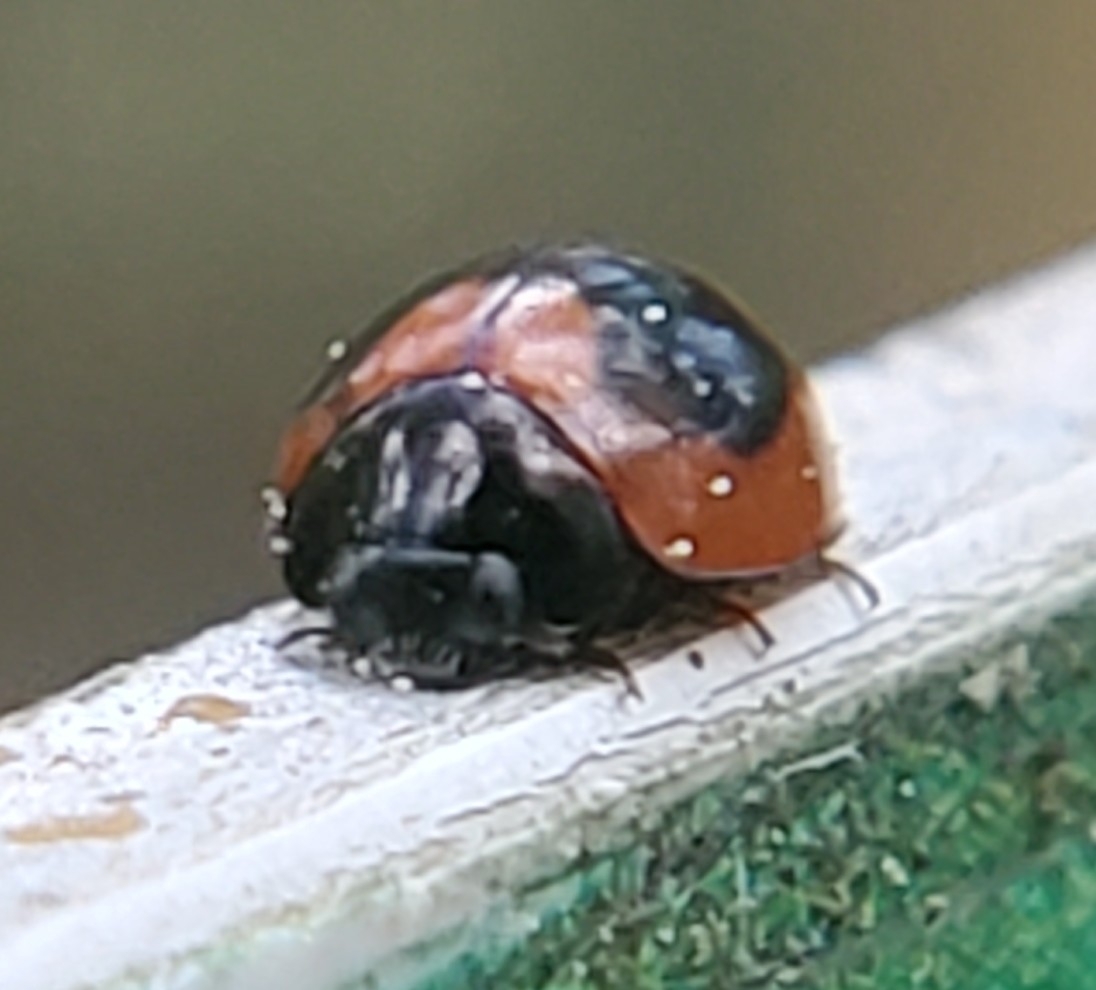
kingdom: Animalia
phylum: Arthropoda
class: Insecta
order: Coleoptera
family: Coccinellidae
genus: Exochomus
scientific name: Exochomus childreni
